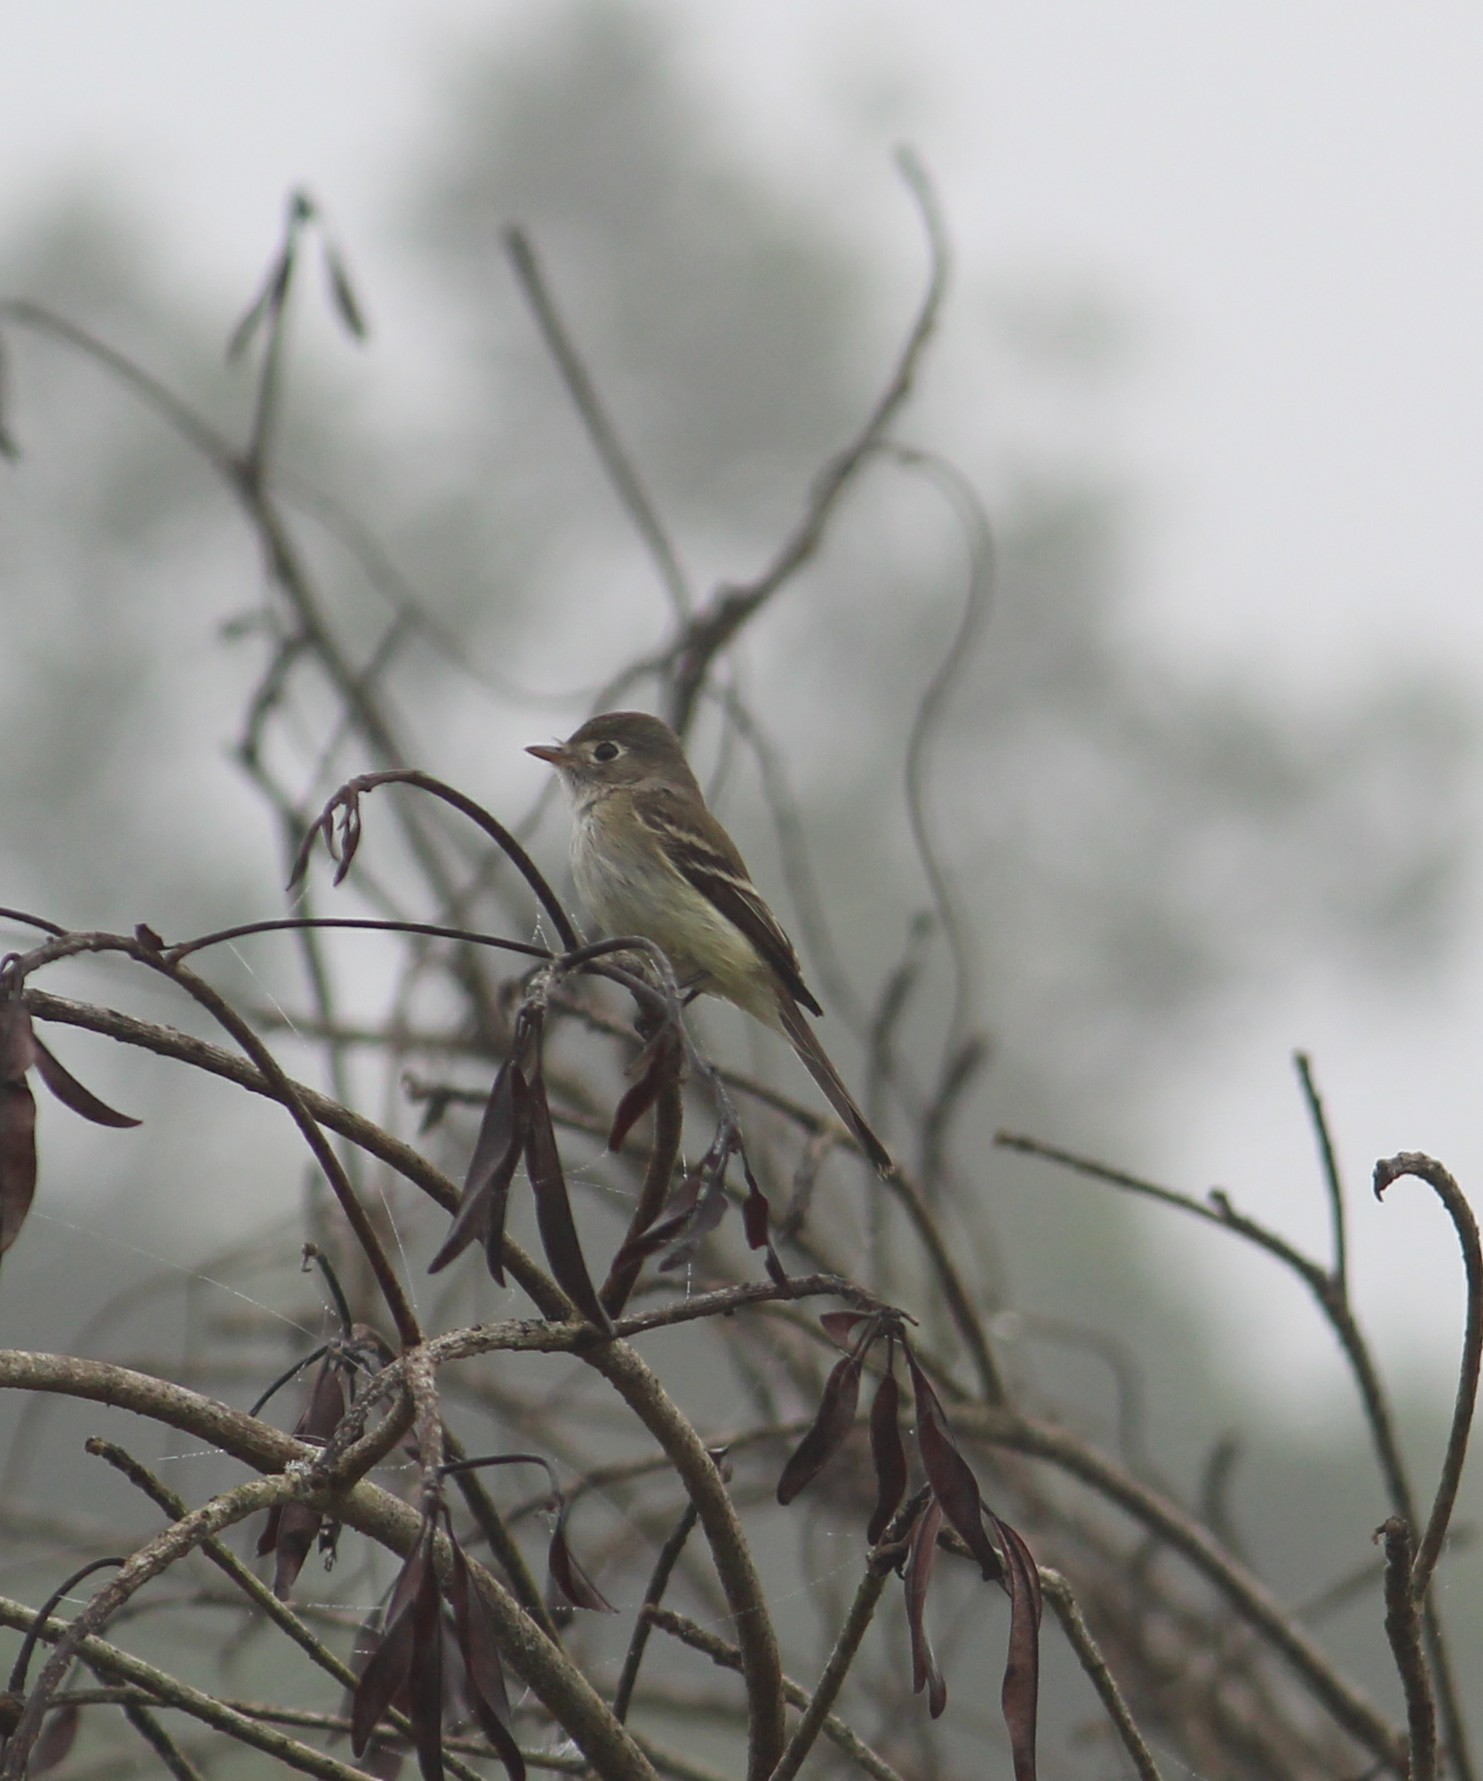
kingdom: Animalia
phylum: Chordata
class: Aves
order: Passeriformes
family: Tyrannidae
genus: Empidonax
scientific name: Empidonax minimus
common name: Least flycatcher
